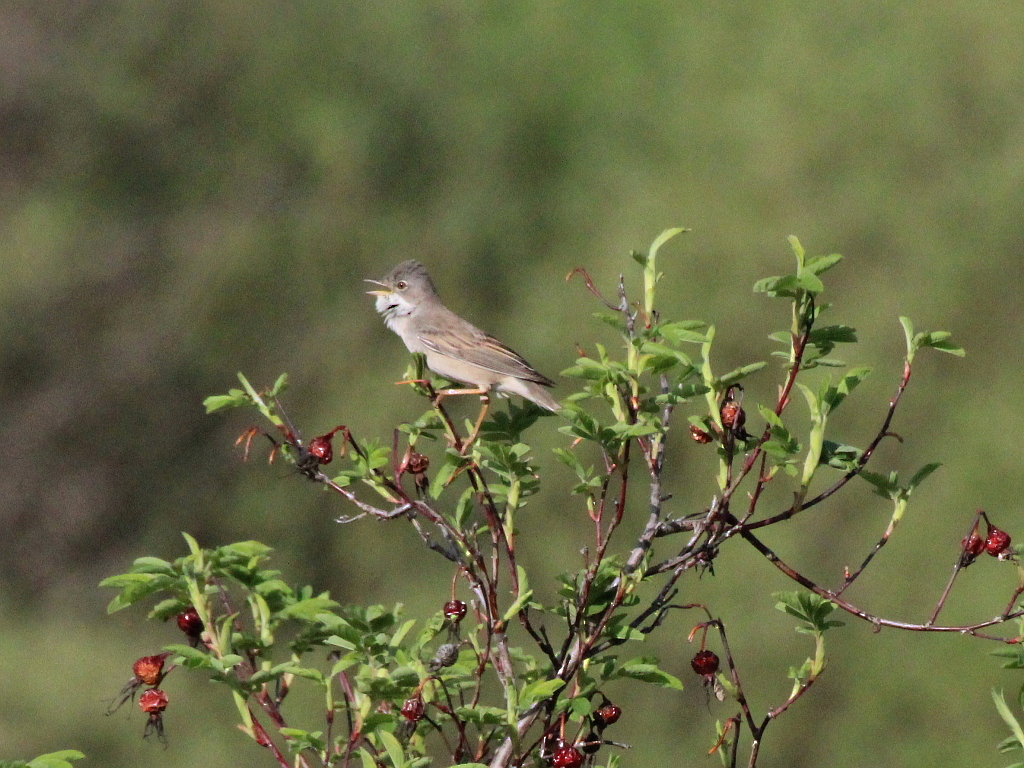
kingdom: Animalia
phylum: Chordata
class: Aves
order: Passeriformes
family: Sylviidae
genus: Sylvia
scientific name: Sylvia communis
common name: Common whitethroat
